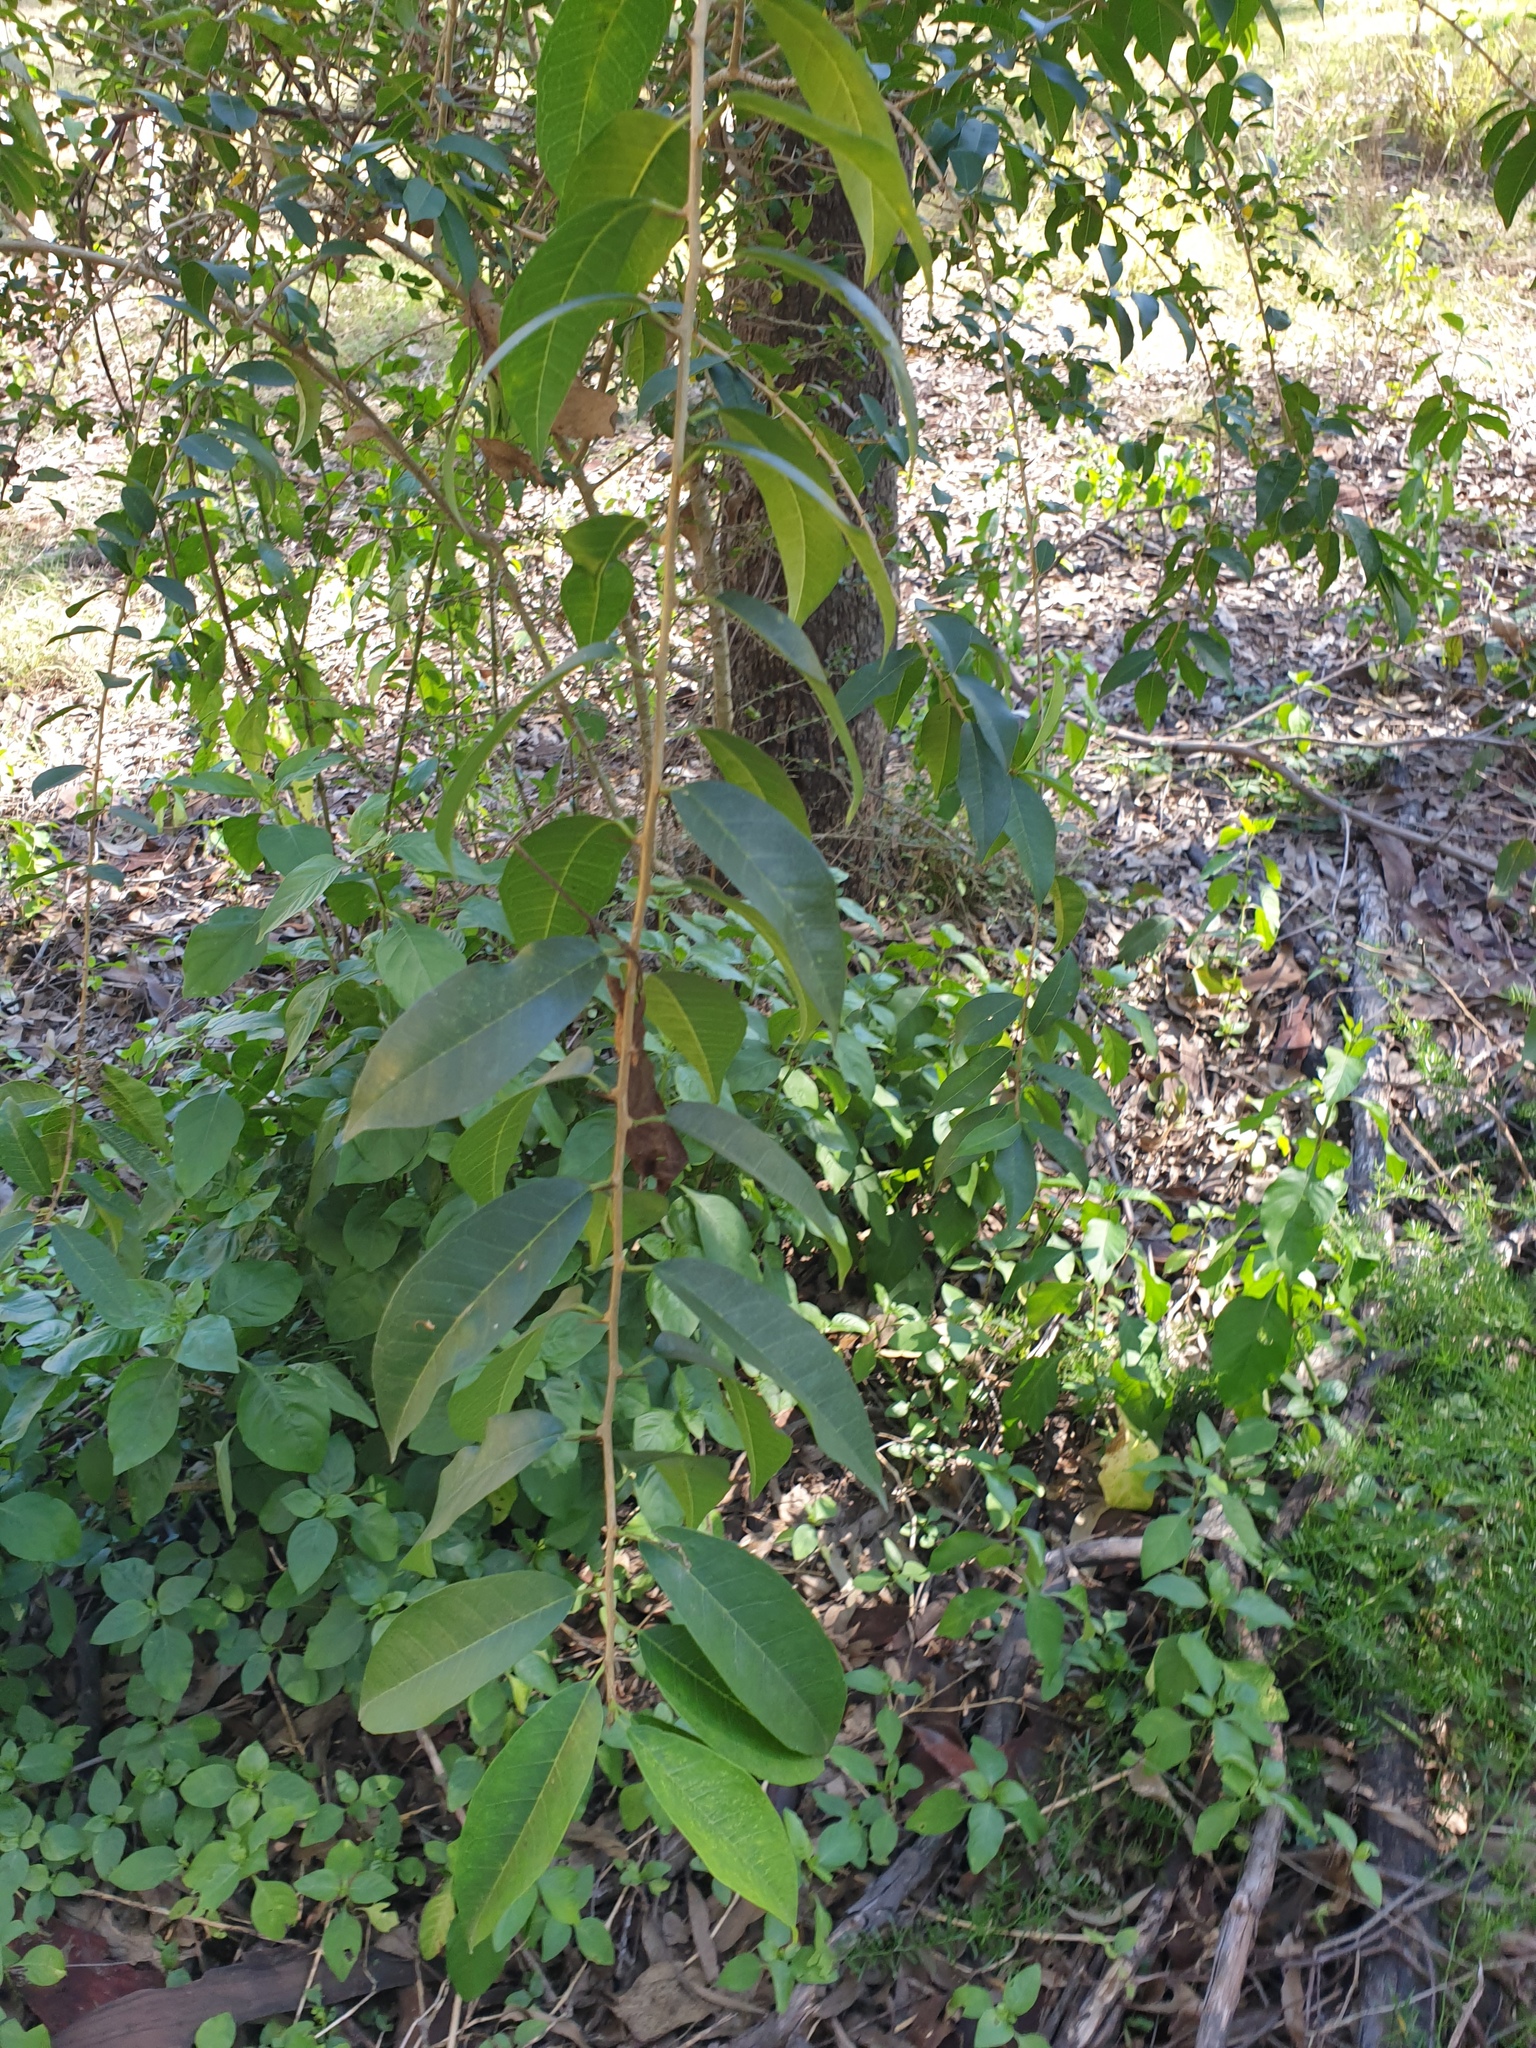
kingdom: Plantae
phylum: Tracheophyta
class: Magnoliopsida
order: Rosales
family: Moraceae
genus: Maclura
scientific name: Maclura cochinchinensis
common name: Cockspurthorn
